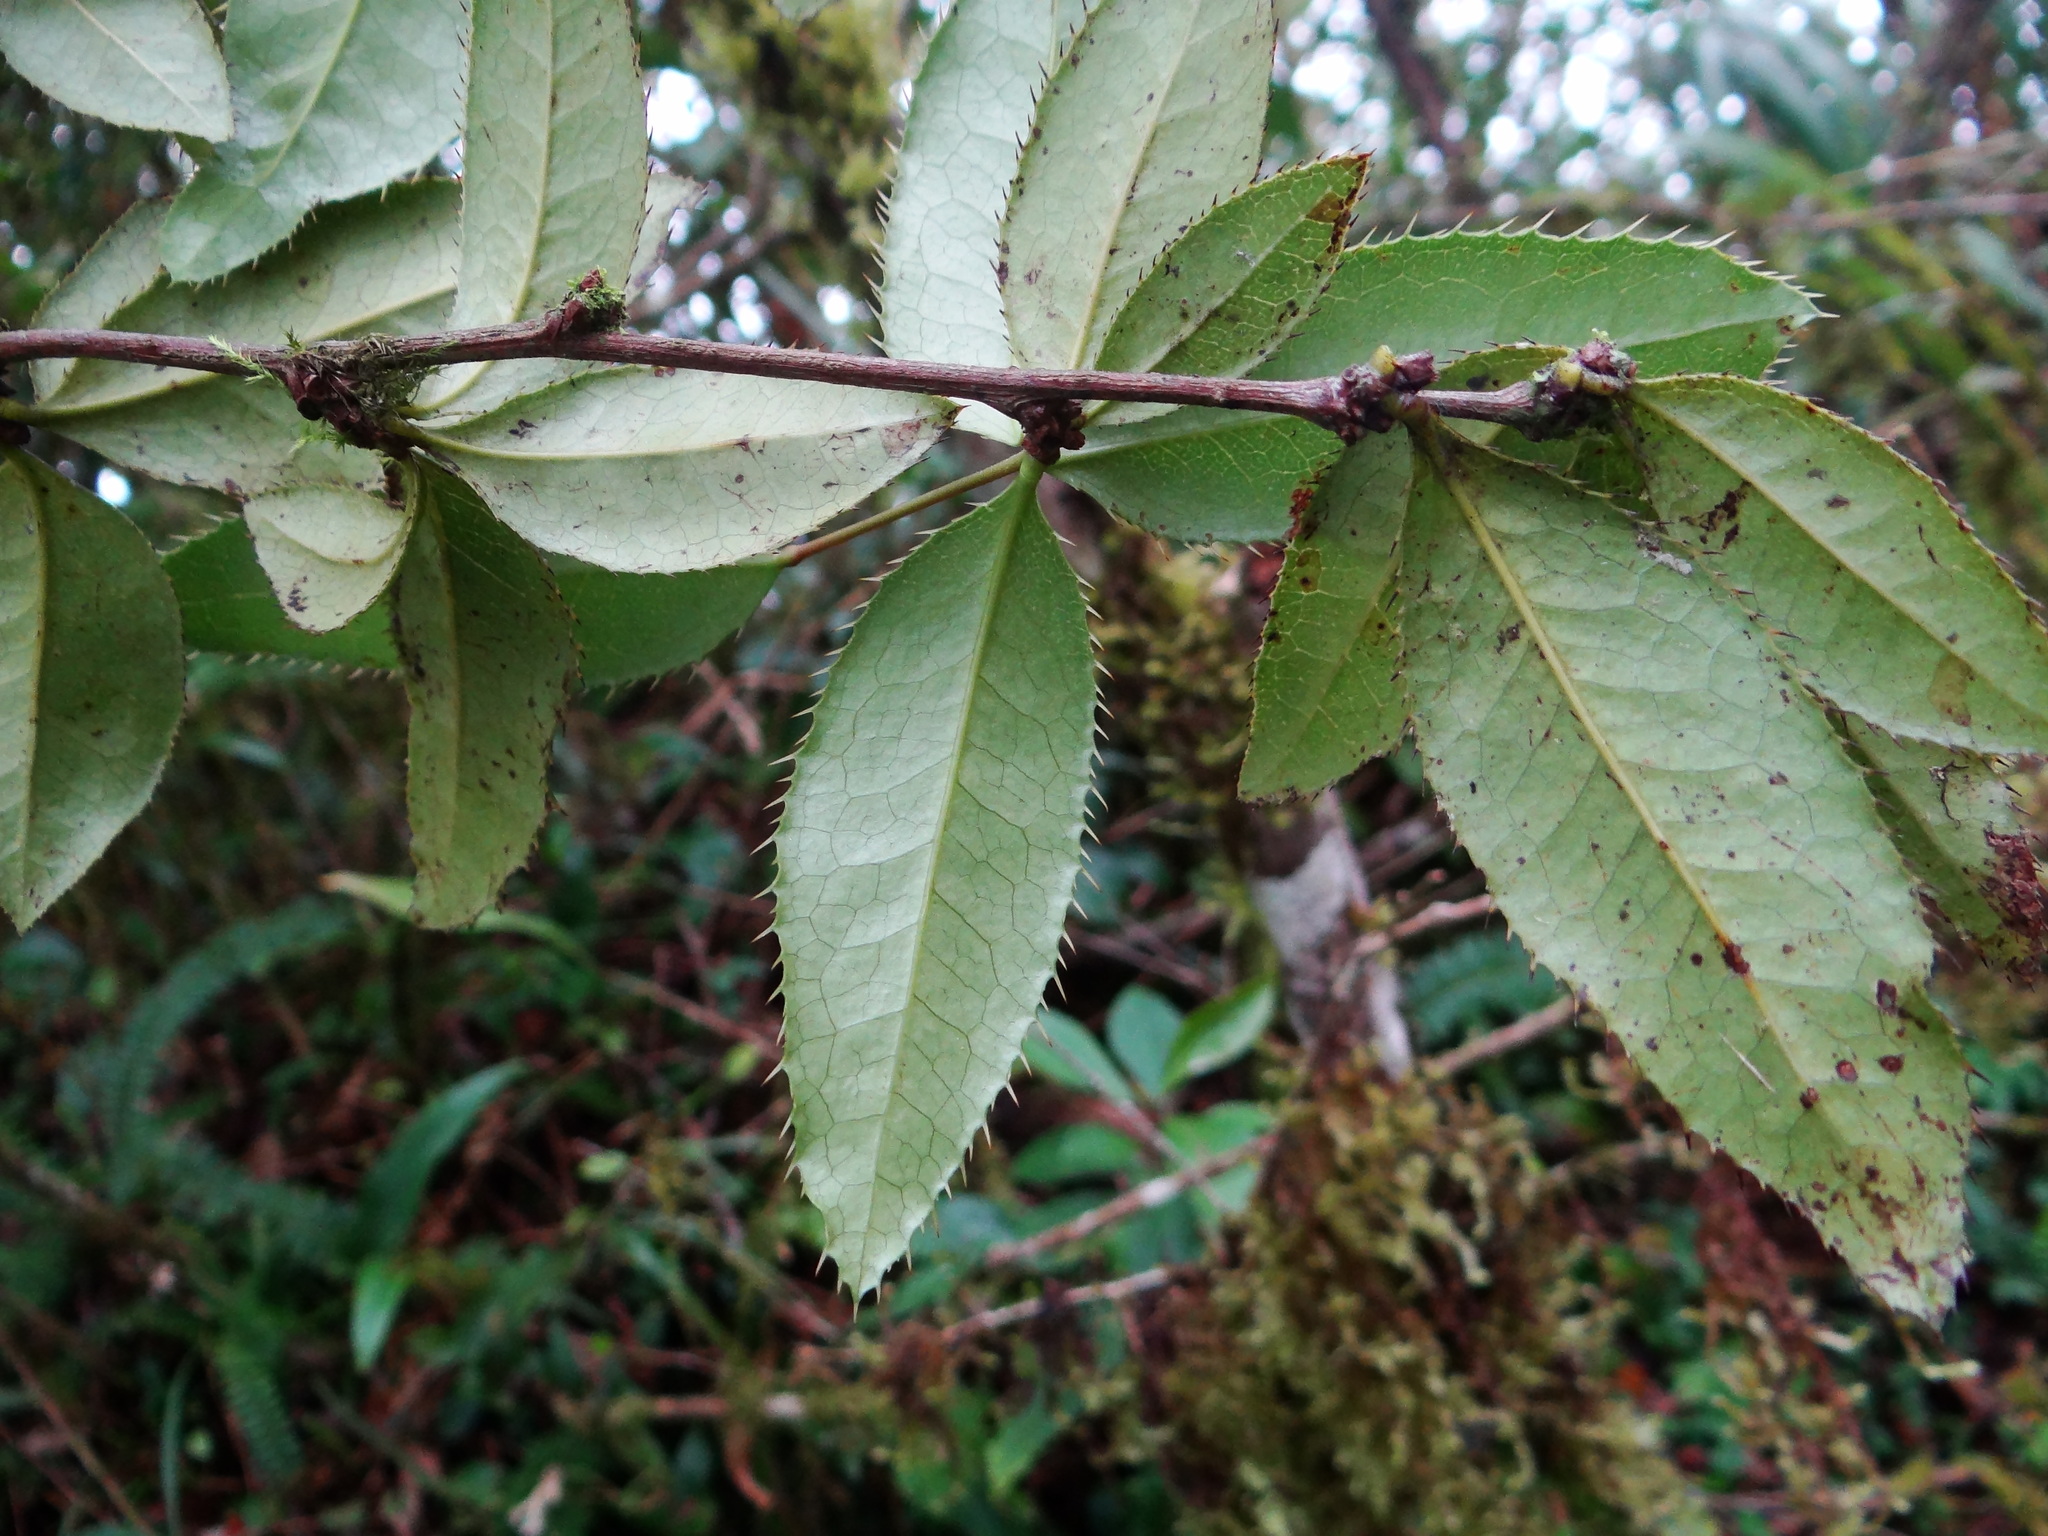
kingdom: Plantae
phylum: Tracheophyta
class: Magnoliopsida
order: Ranunculales
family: Berberidaceae
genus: Berberis
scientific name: Berberis schaaliae
